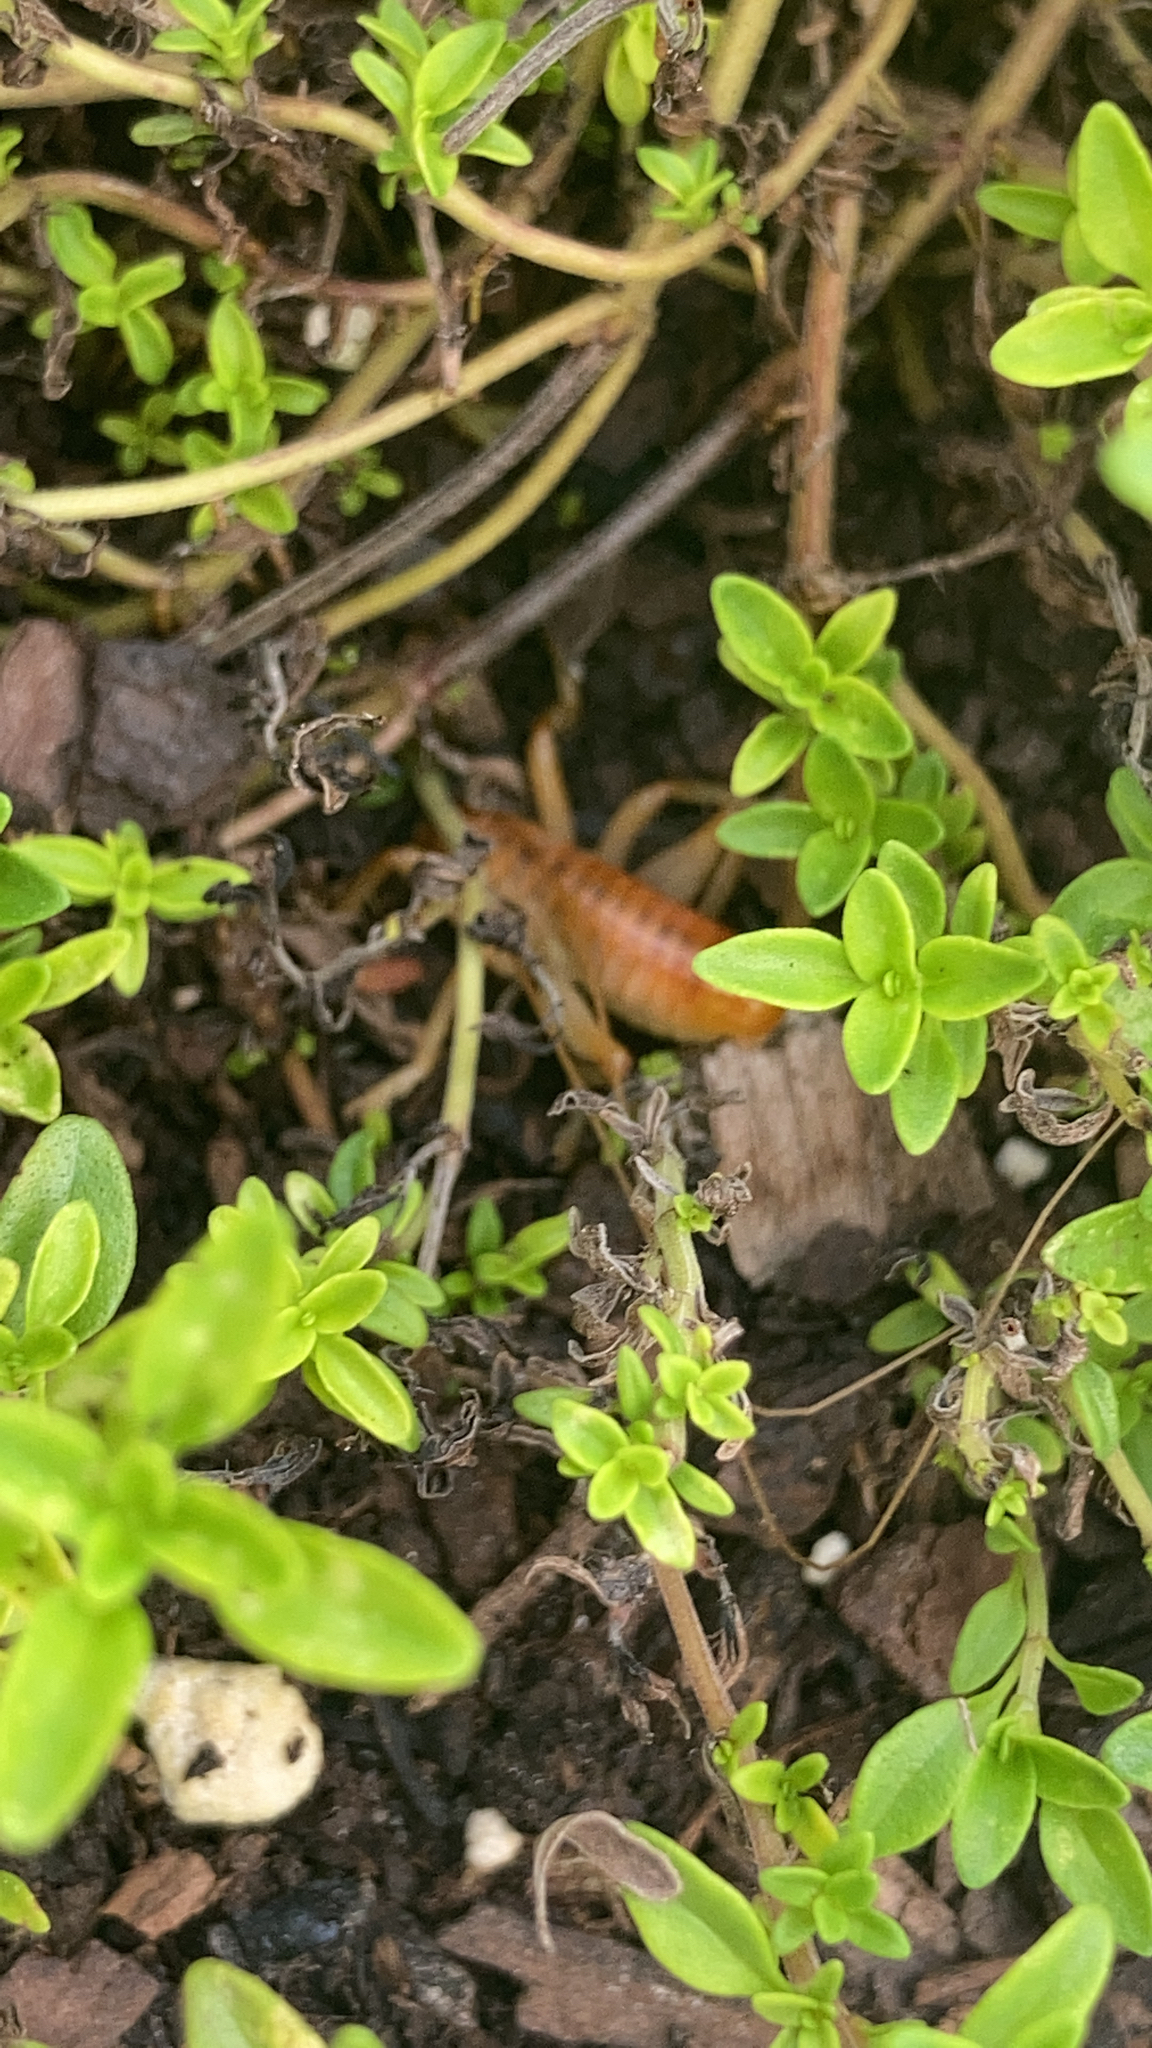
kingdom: Animalia
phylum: Arthropoda
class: Insecta
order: Orthoptera
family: Gryllacrididae
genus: Camptonotus
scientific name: Camptonotus carolinensis
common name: Carolina leaf-roller
